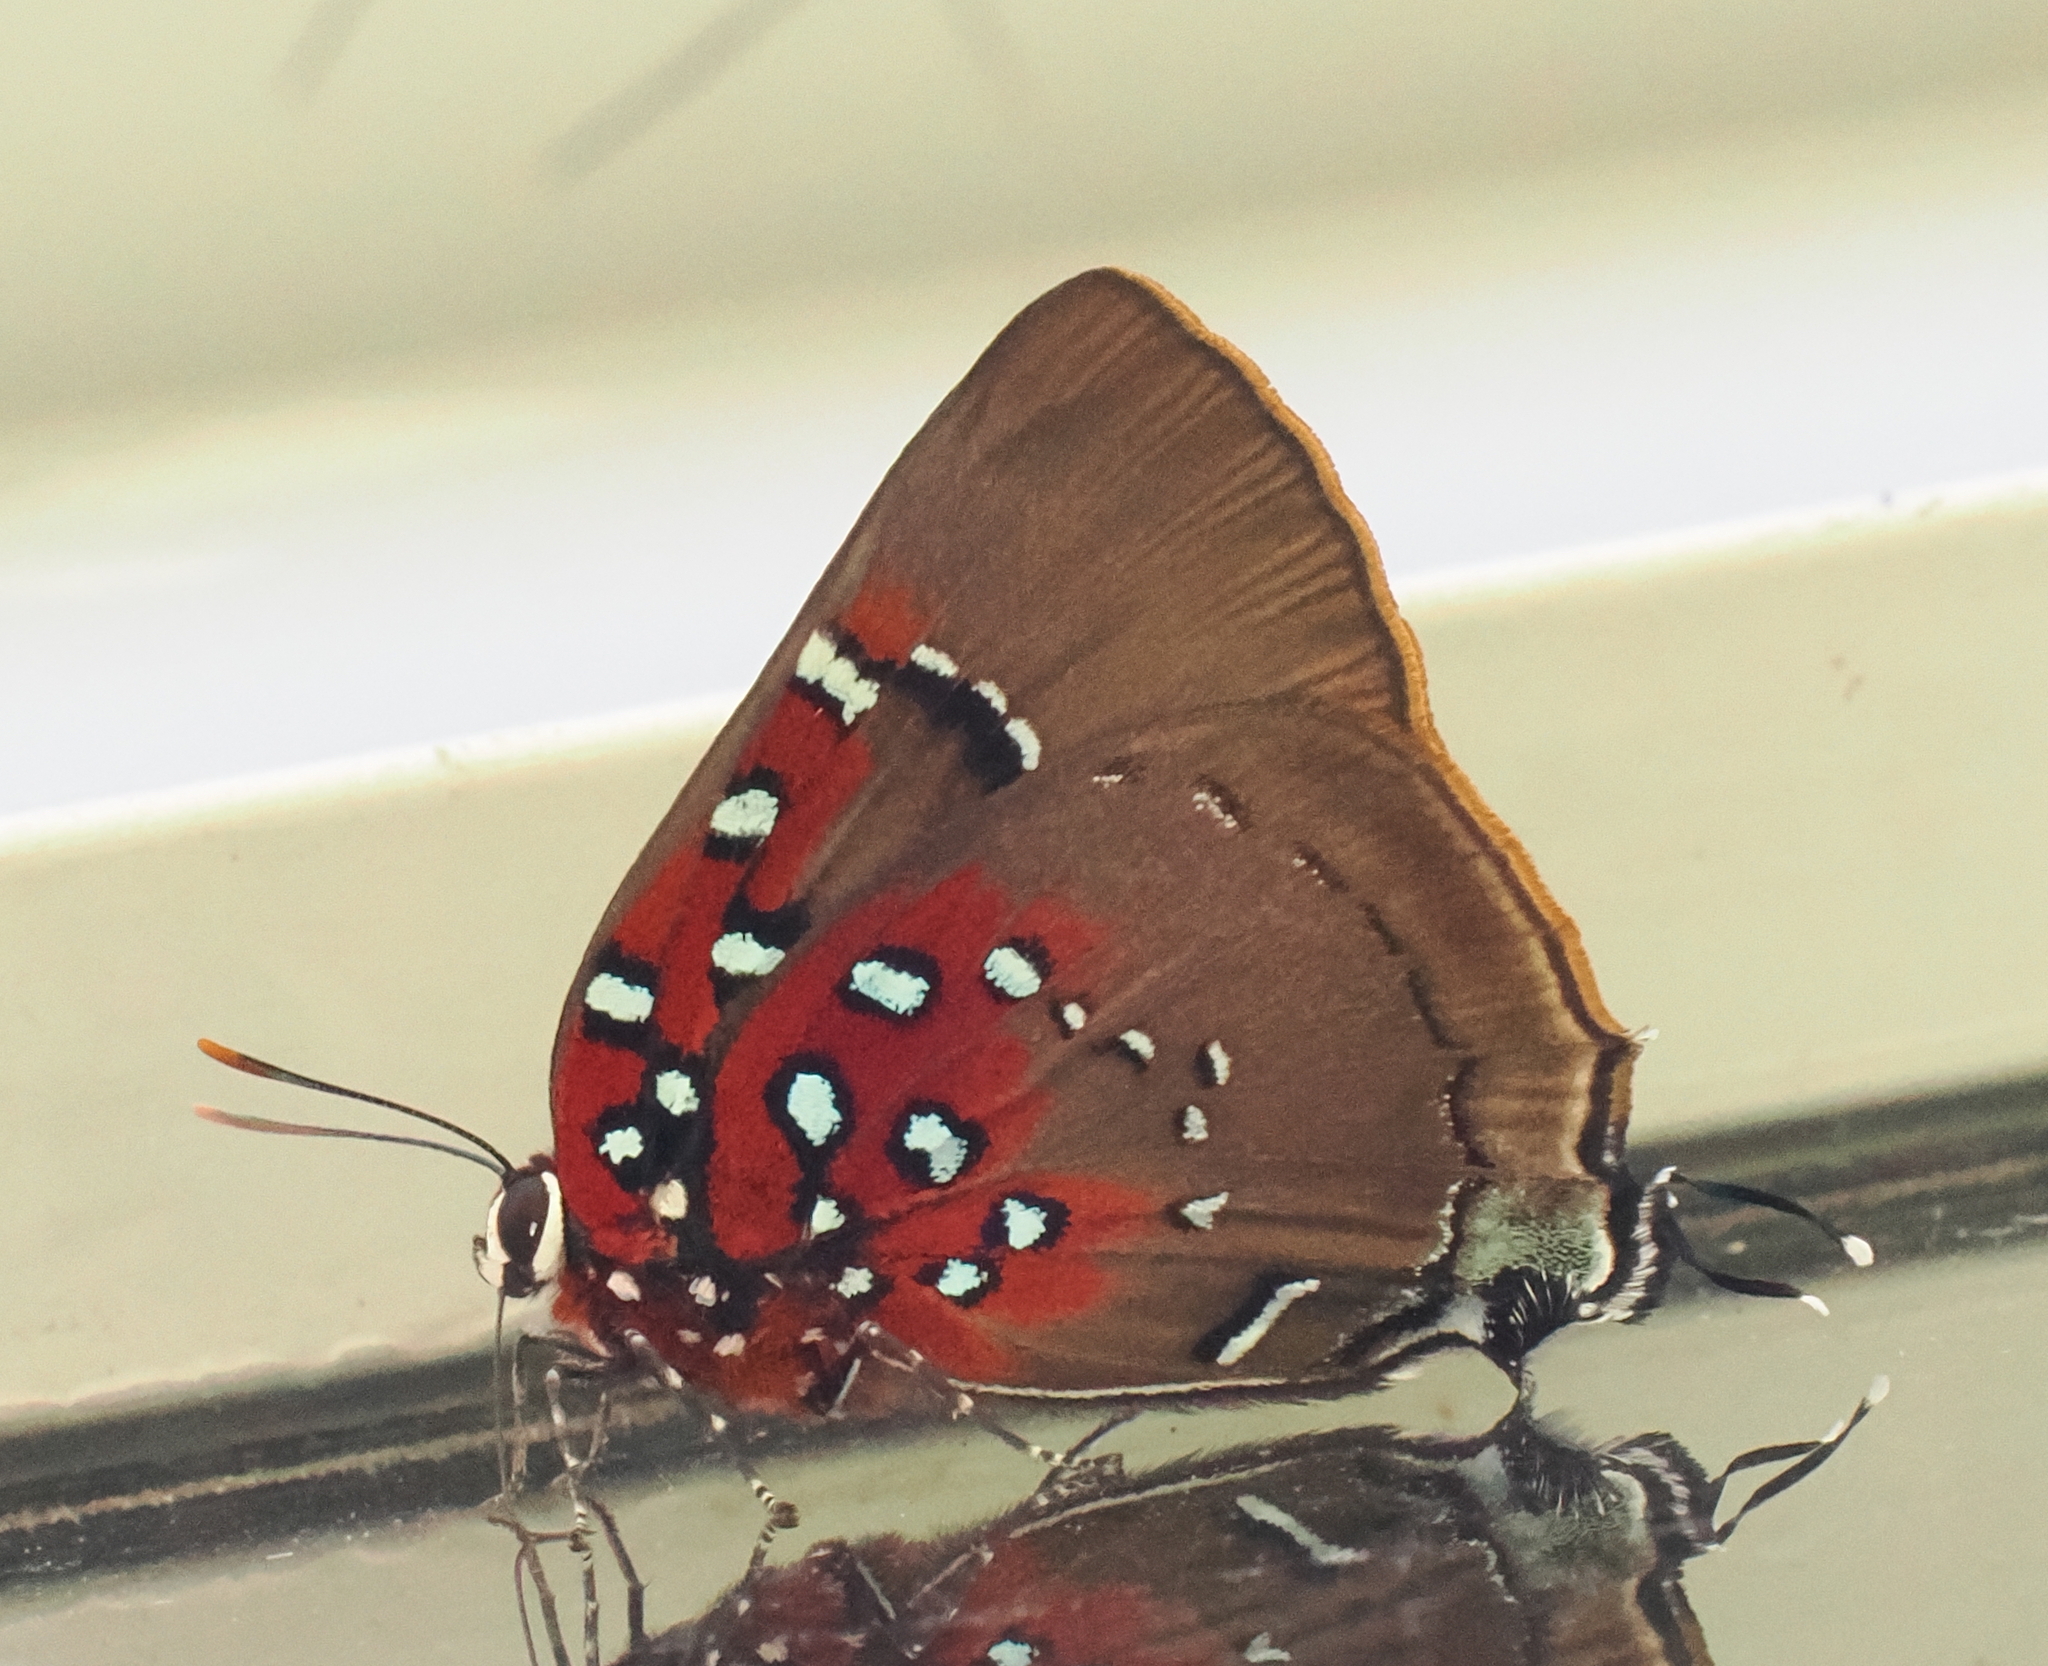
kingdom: Animalia
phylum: Arthropoda
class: Insecta
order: Lepidoptera
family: Lycaenidae
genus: Thecla
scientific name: Thecla getus
